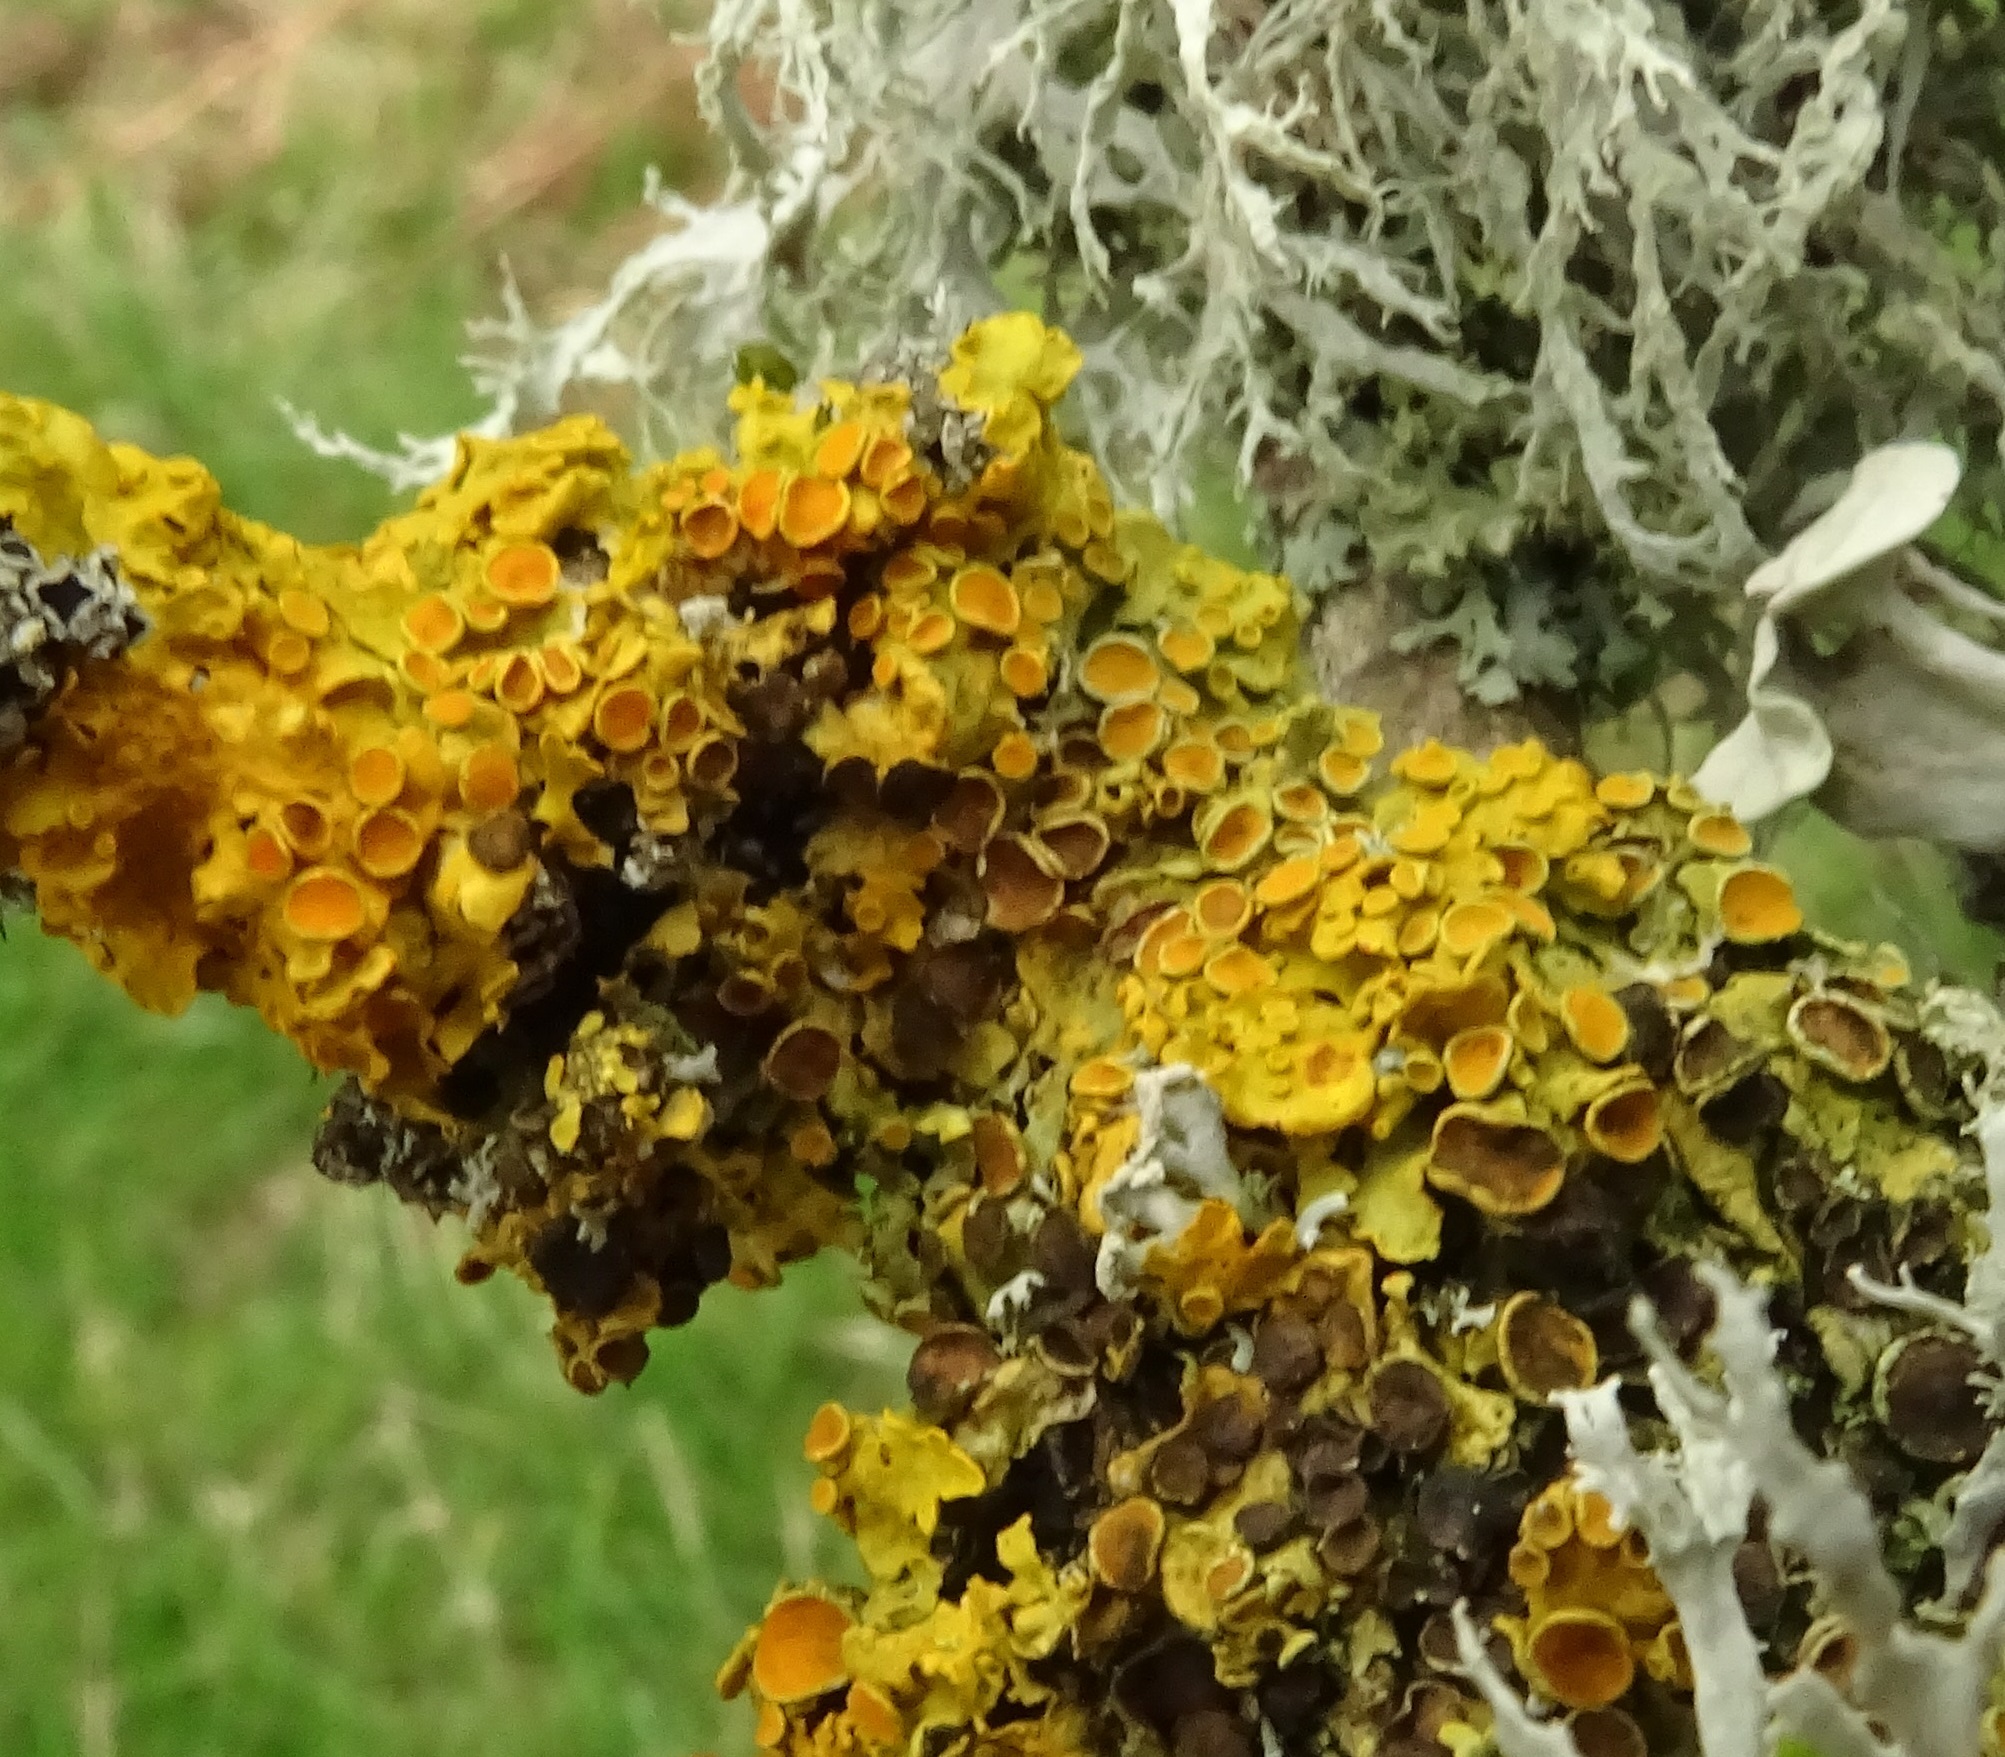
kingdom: Fungi
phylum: Ascomycota
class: Lecanoromycetes
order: Teloschistales
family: Teloschistaceae
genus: Xanthoria
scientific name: Xanthoria parietina
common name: Common orange lichen
